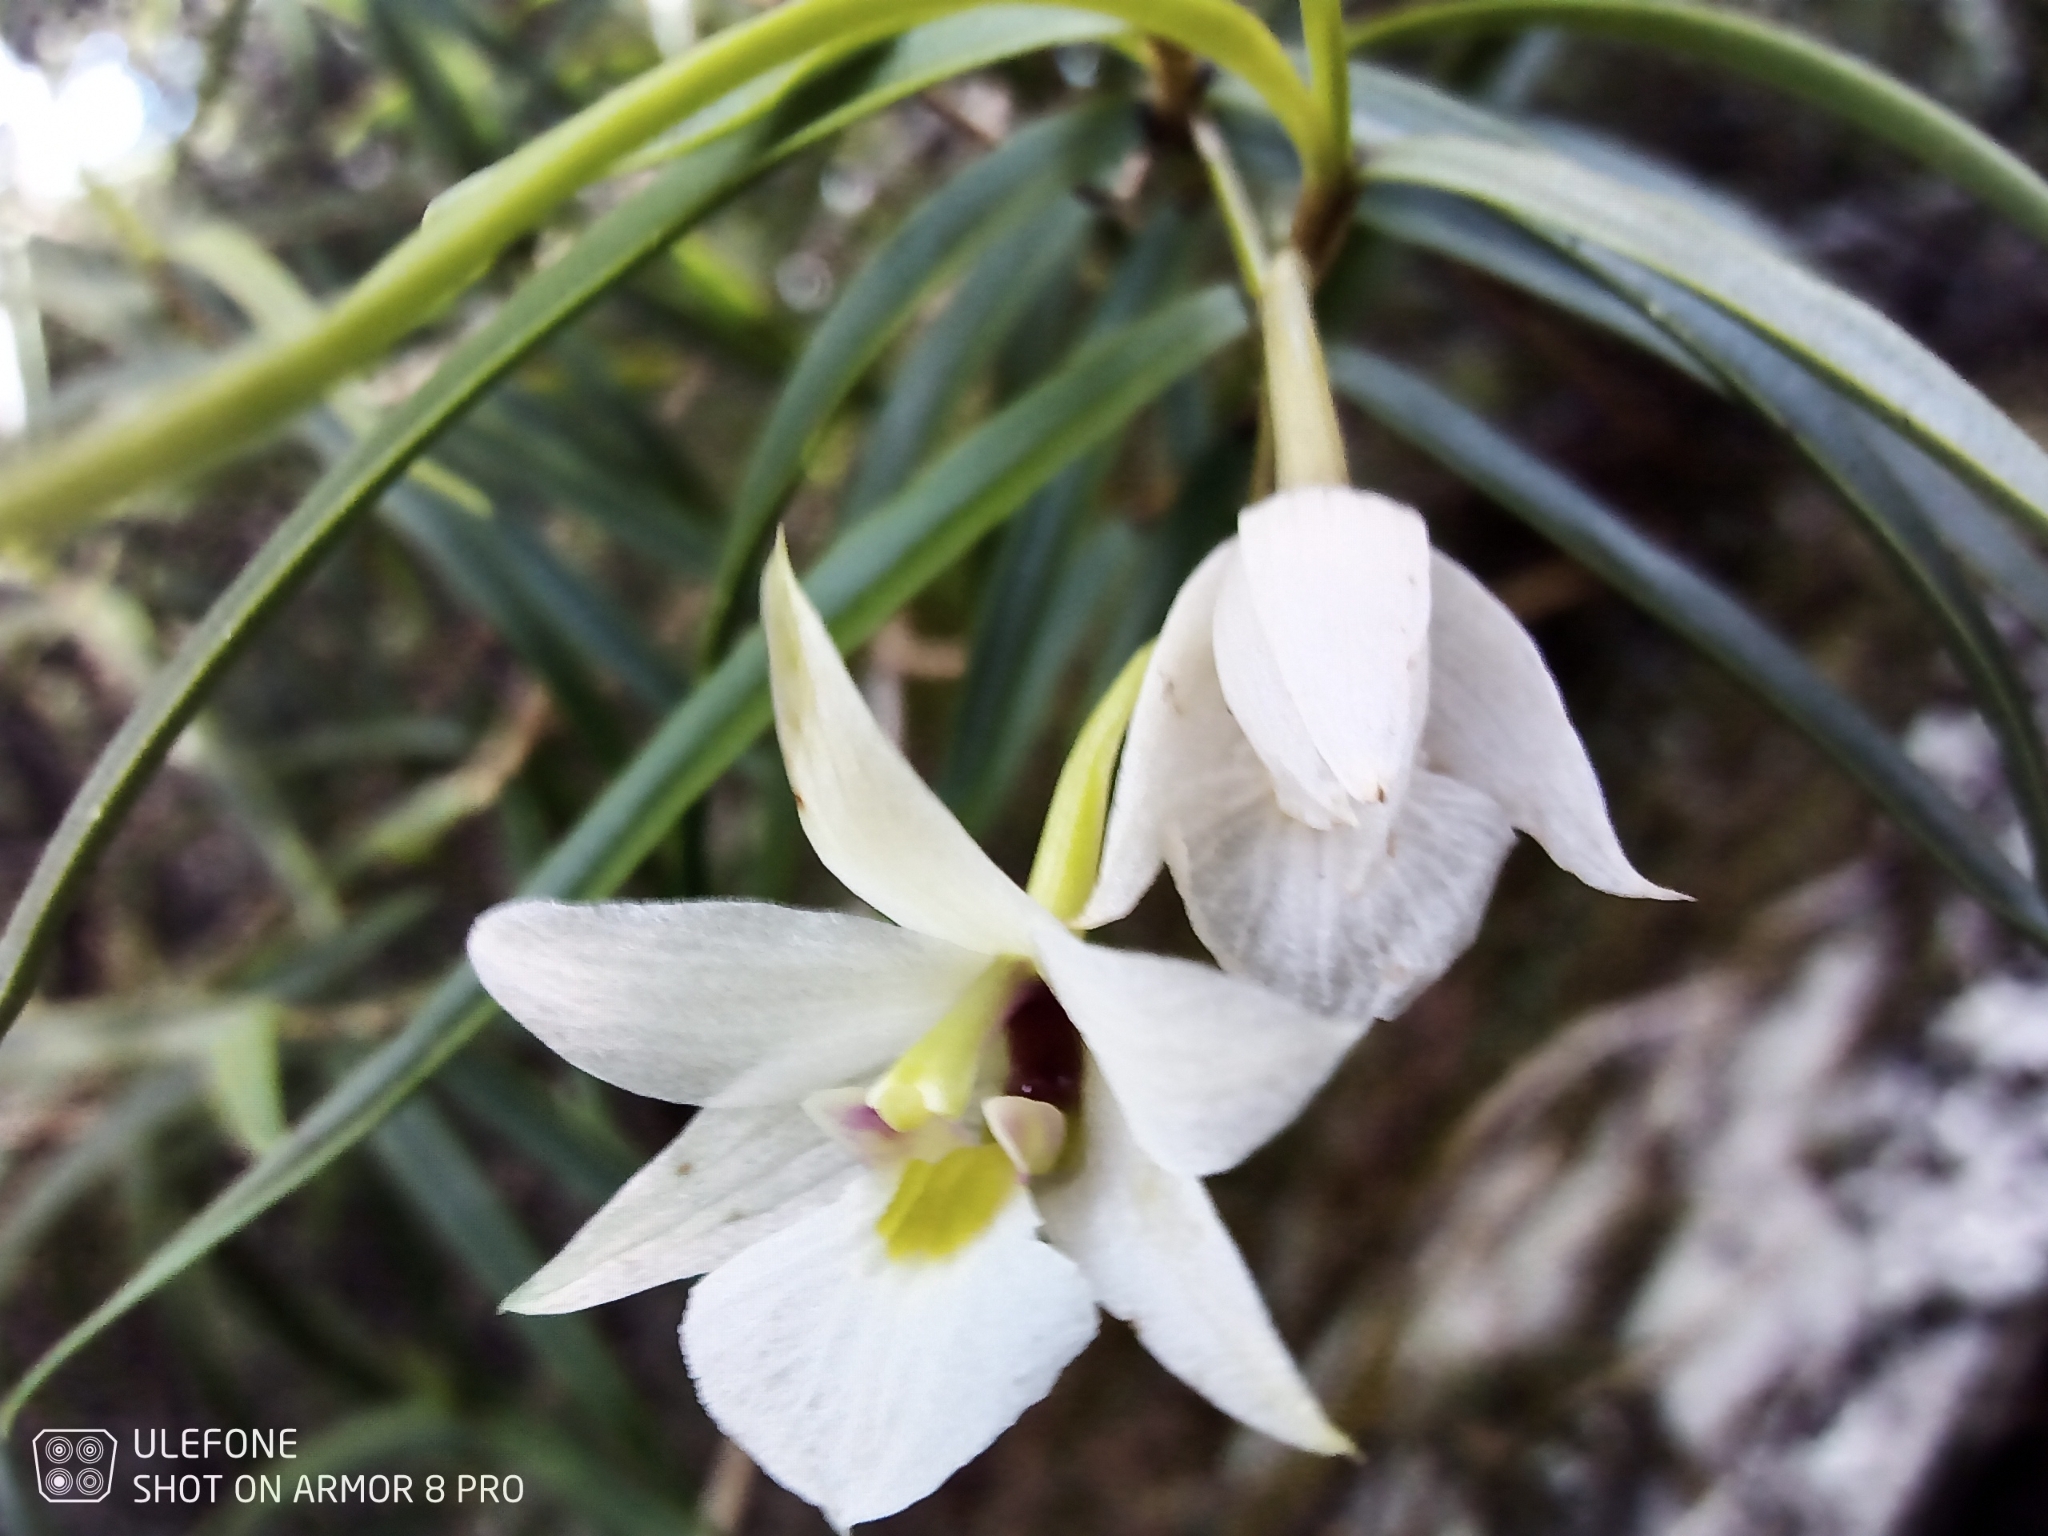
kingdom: Plantae
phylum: Tracheophyta
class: Liliopsida
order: Asparagales
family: Orchidaceae
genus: Dendrobium
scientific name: Dendrobium cunninghamii
